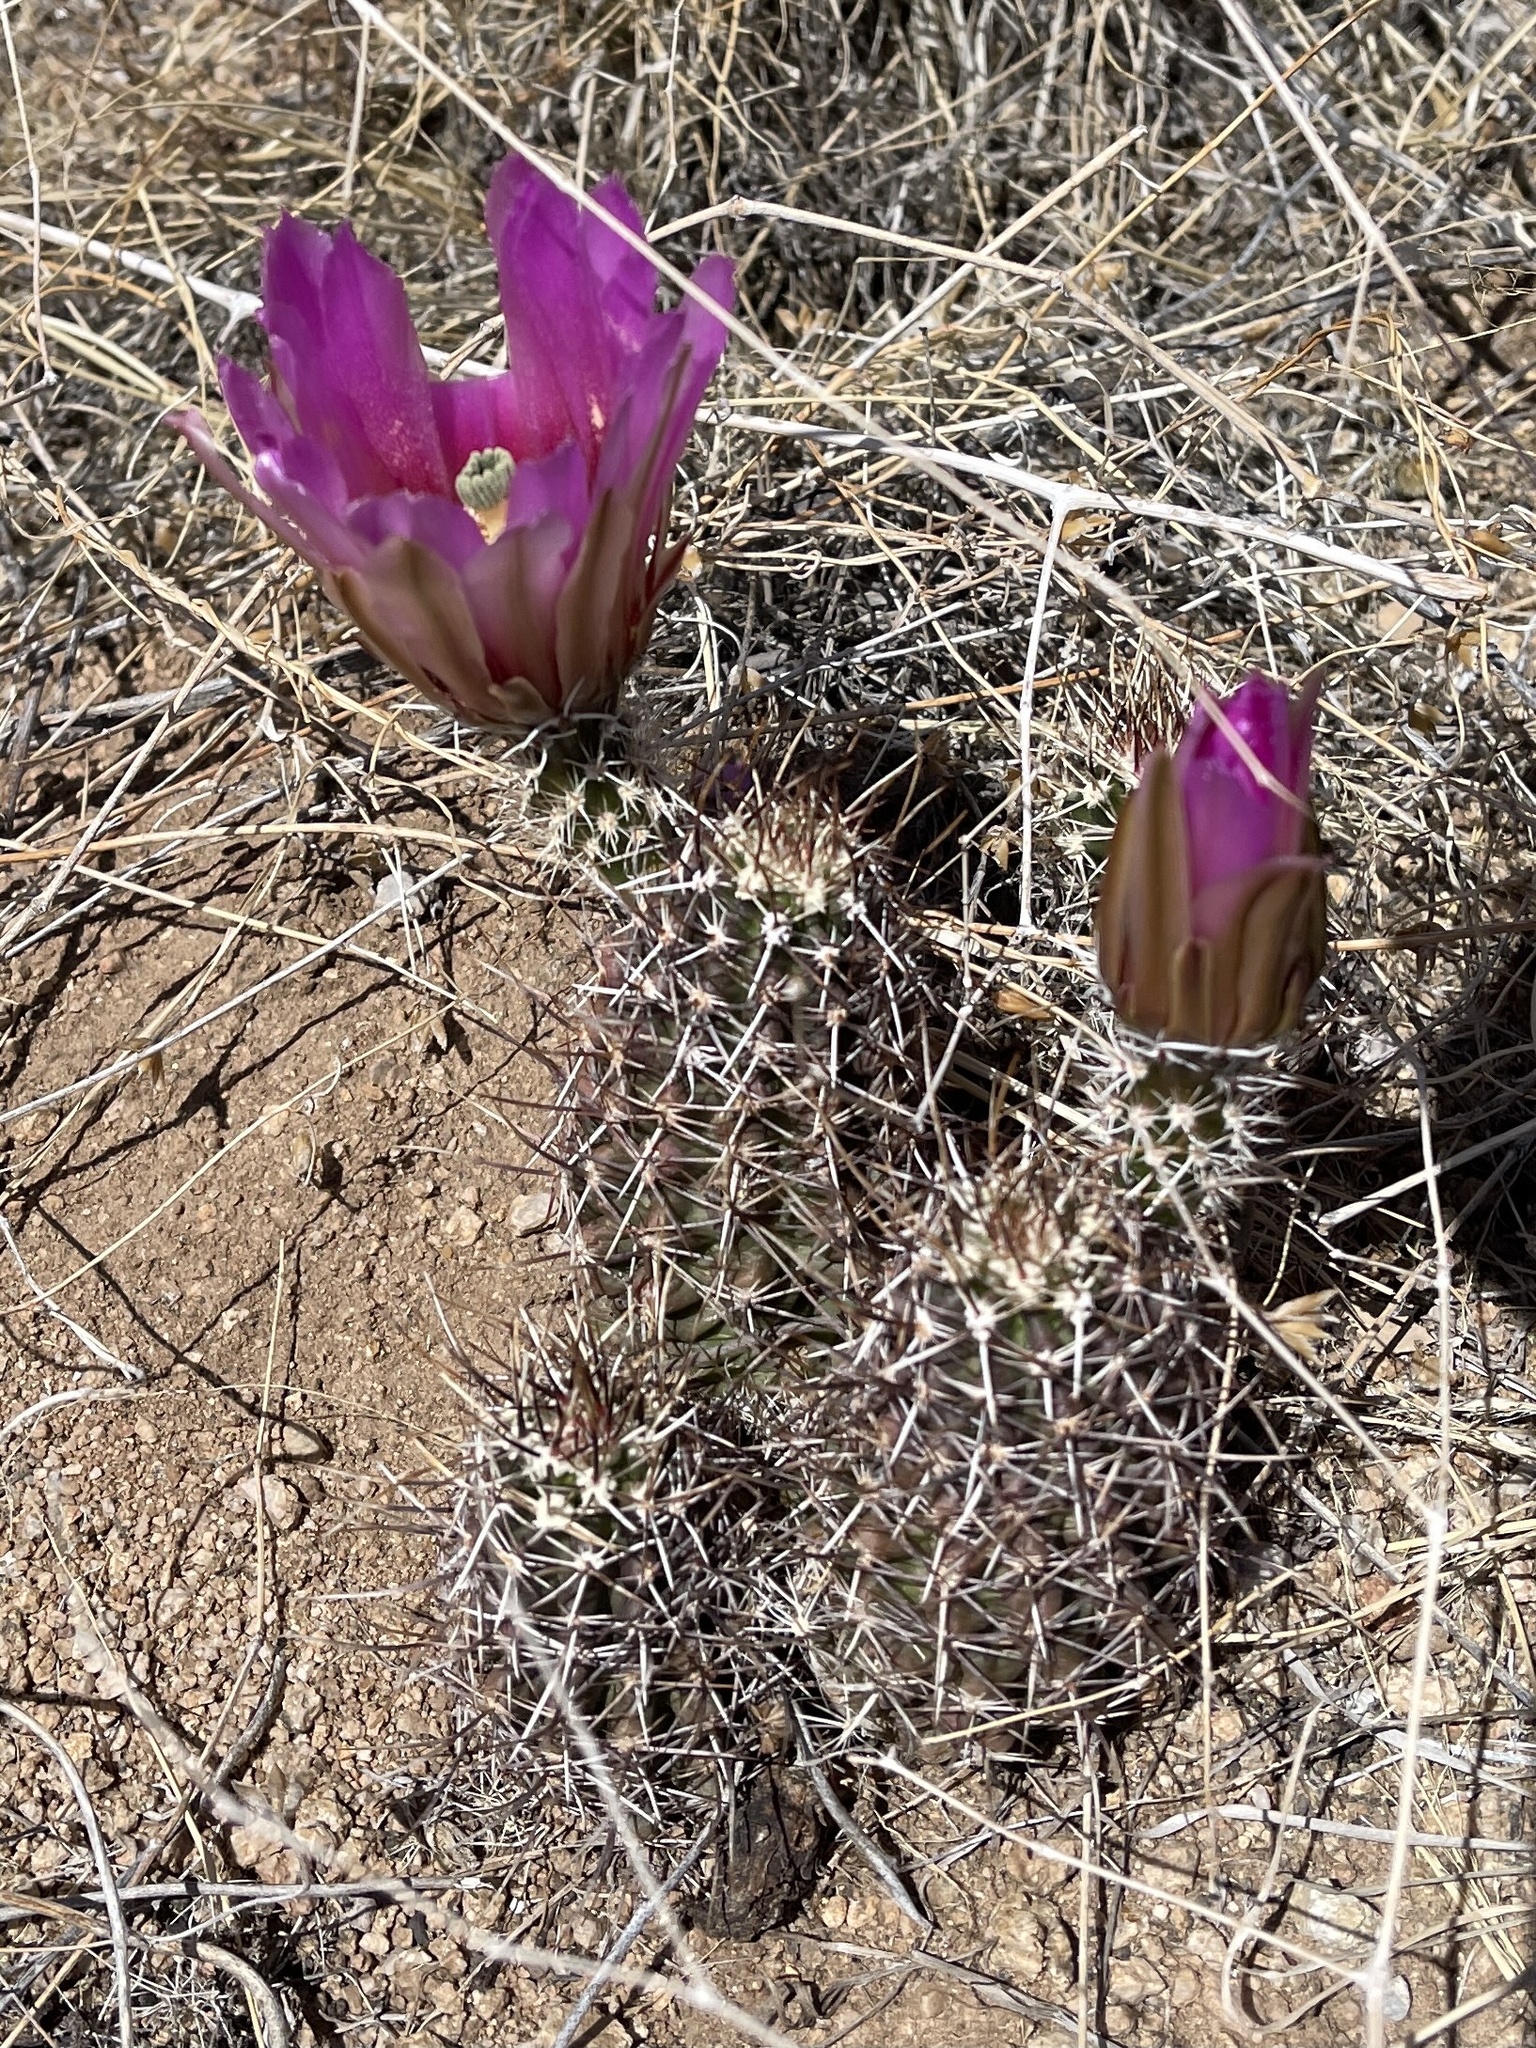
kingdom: Plantae
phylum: Tracheophyta
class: Magnoliopsida
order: Caryophyllales
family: Cactaceae
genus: Echinocereus
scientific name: Echinocereus fendleri
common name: Fendler's hedgehog cactus
